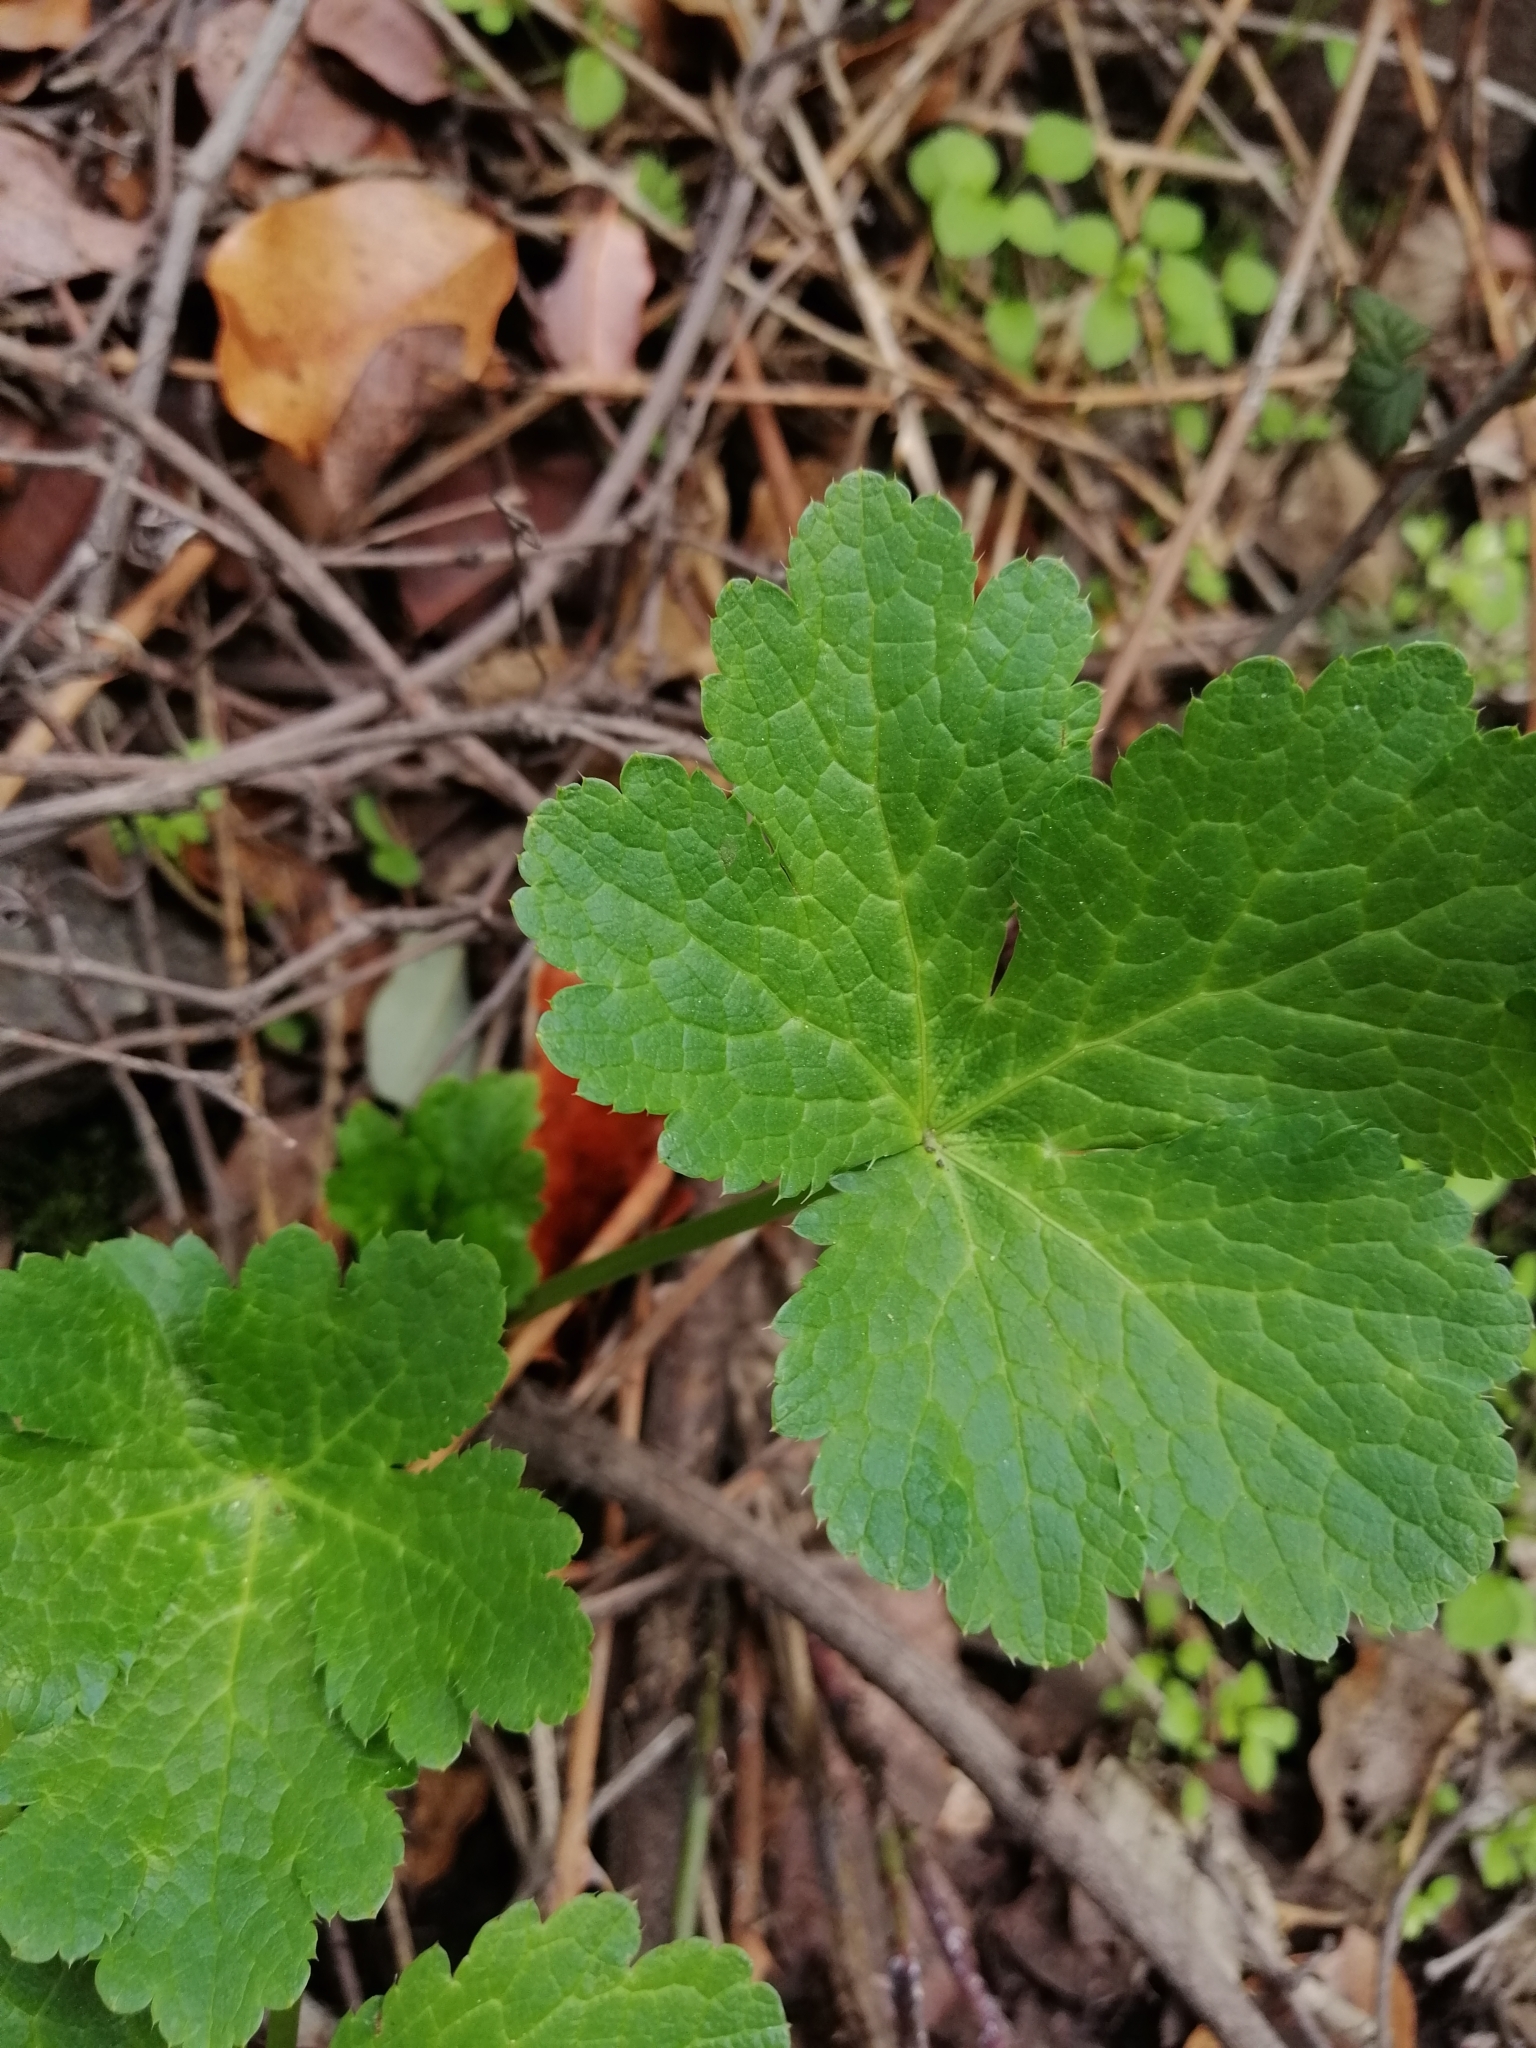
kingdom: Plantae
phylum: Tracheophyta
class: Magnoliopsida
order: Apiales
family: Apiaceae
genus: Sanicula
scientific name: Sanicula crassicaulis
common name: Western snakeroot
